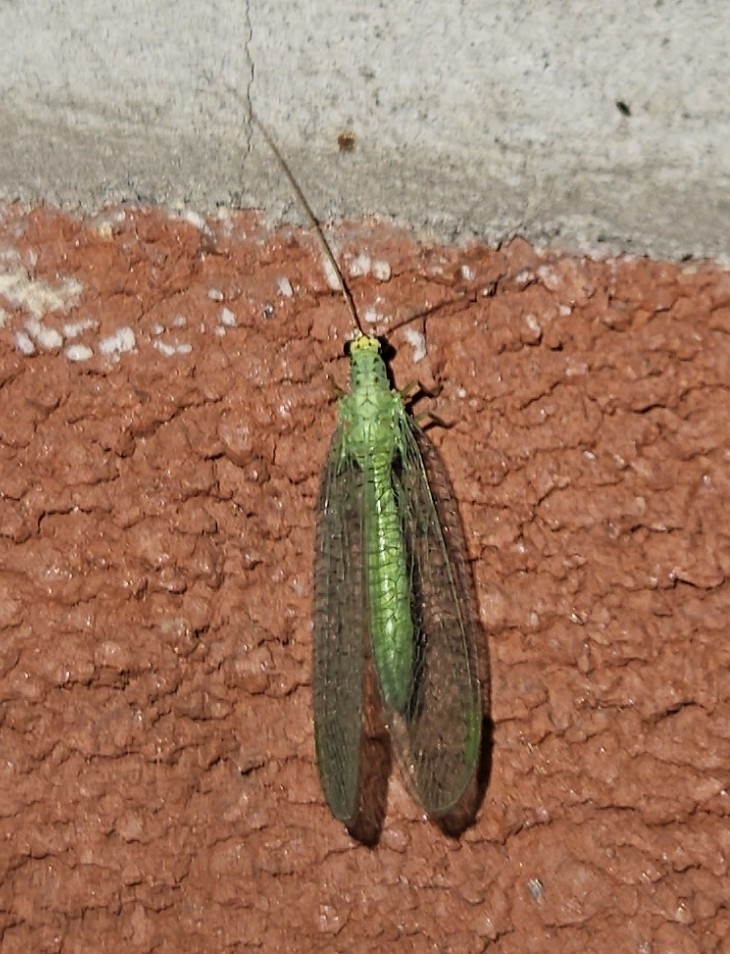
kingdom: Animalia
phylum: Arthropoda
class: Insecta
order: Neuroptera
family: Chrysopidae
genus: Chrysopa
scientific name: Chrysopa oculata
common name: Golden-eyed lacewing
